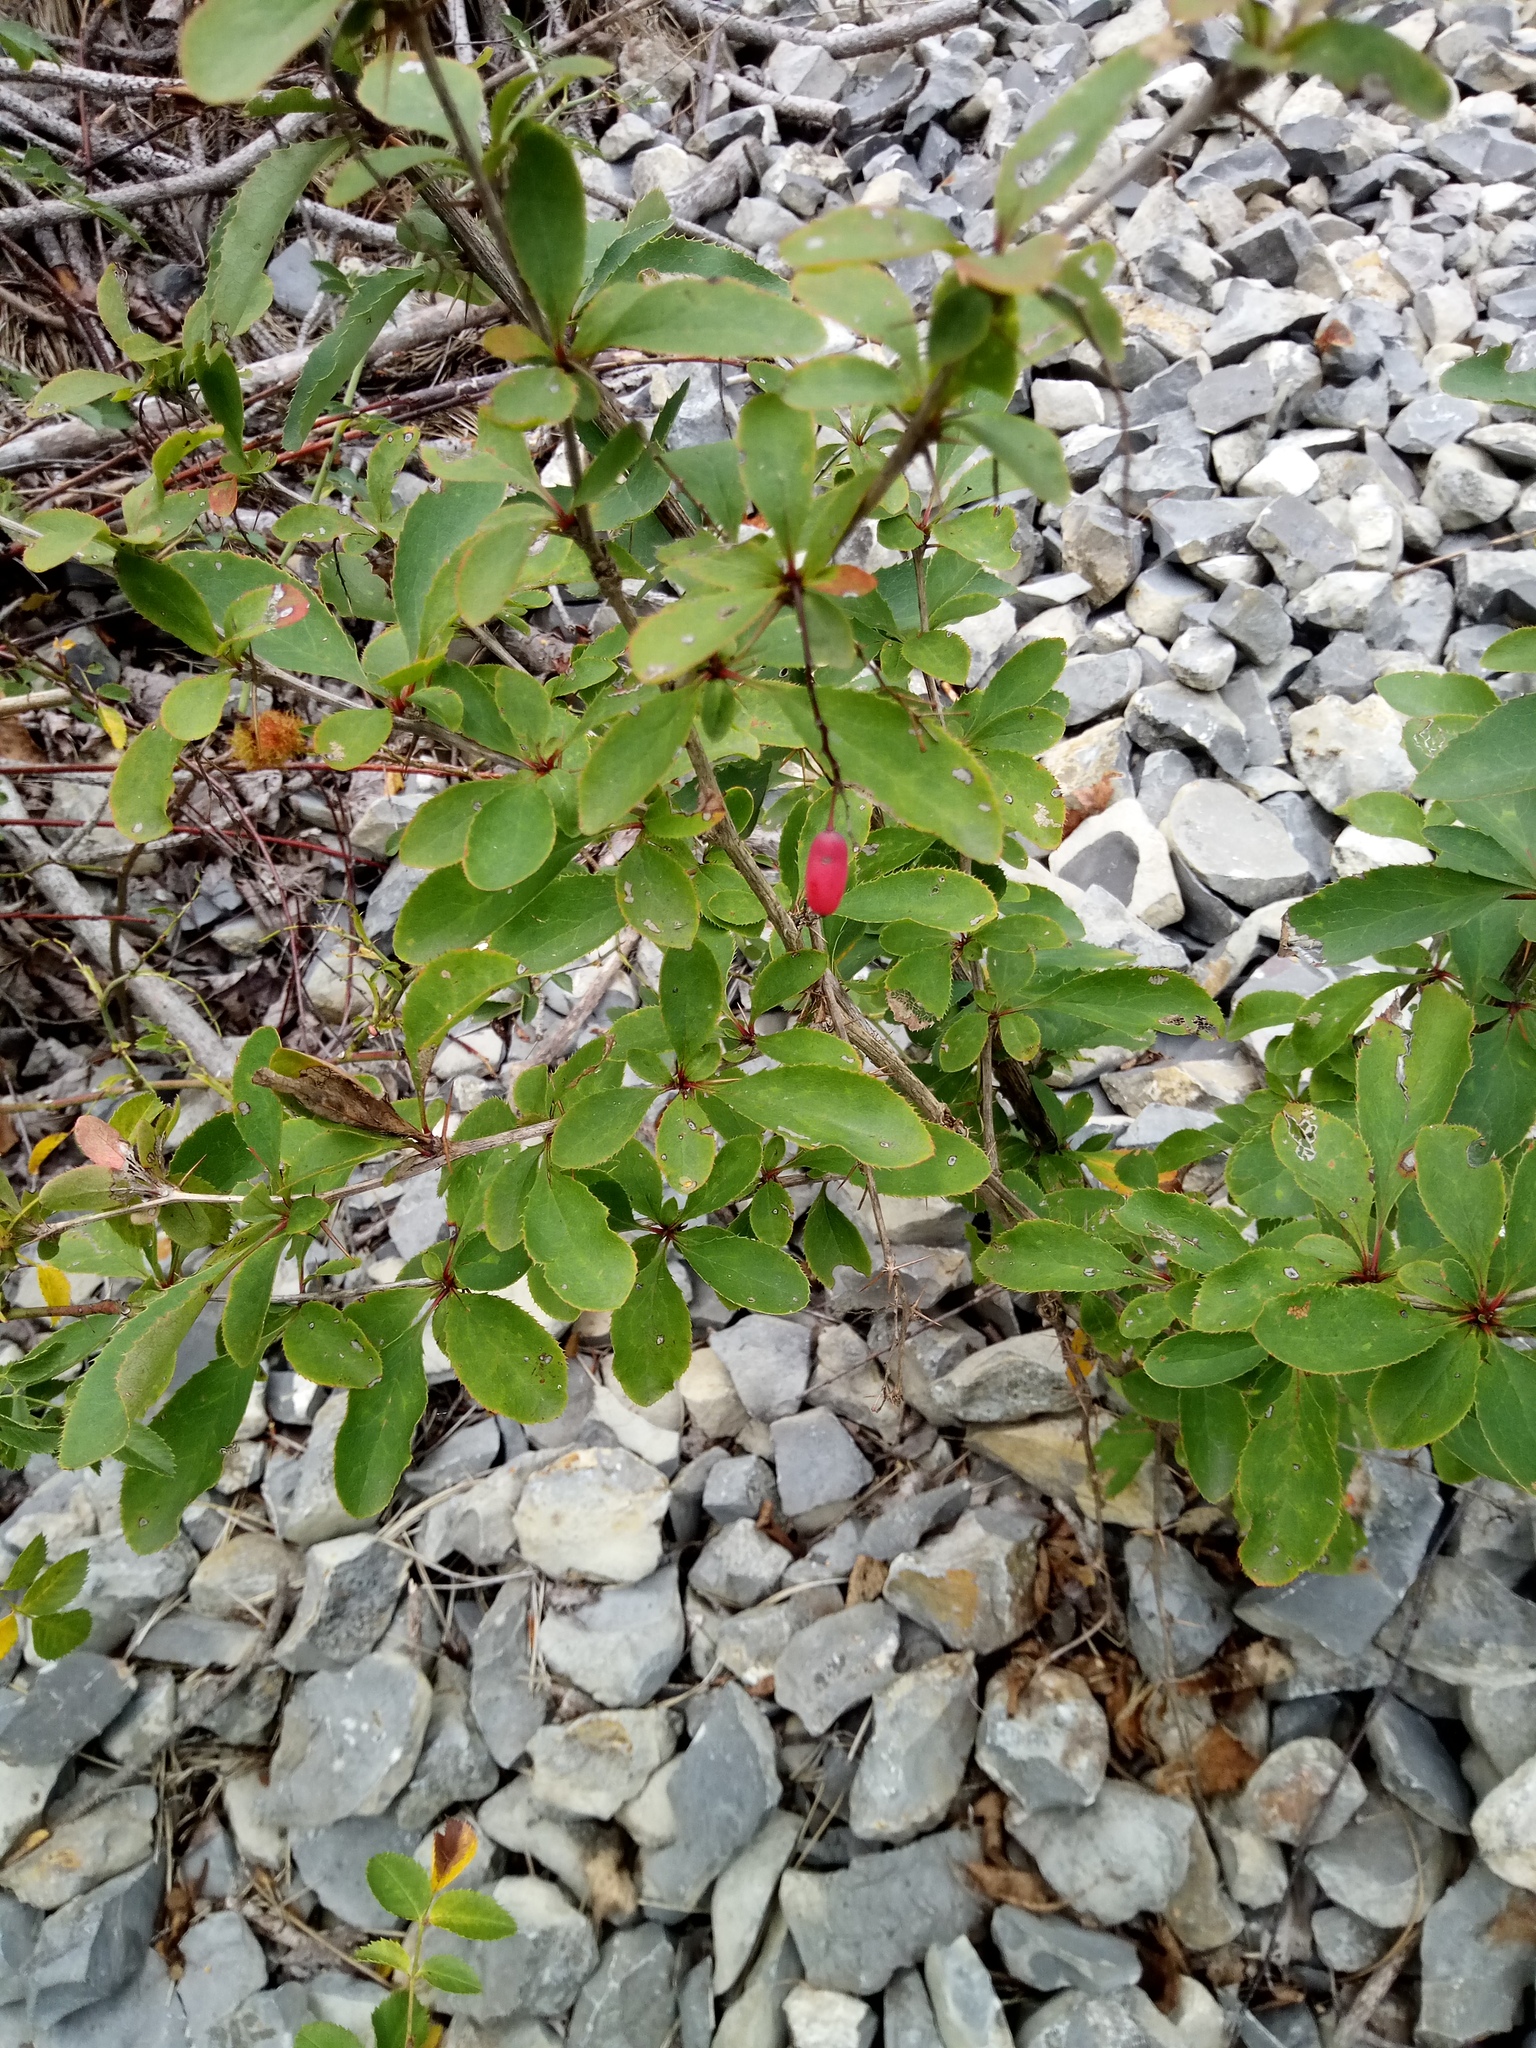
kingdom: Plantae
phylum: Tracheophyta
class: Magnoliopsida
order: Ranunculales
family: Berberidaceae
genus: Berberis
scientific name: Berberis vulgaris
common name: Barberry
